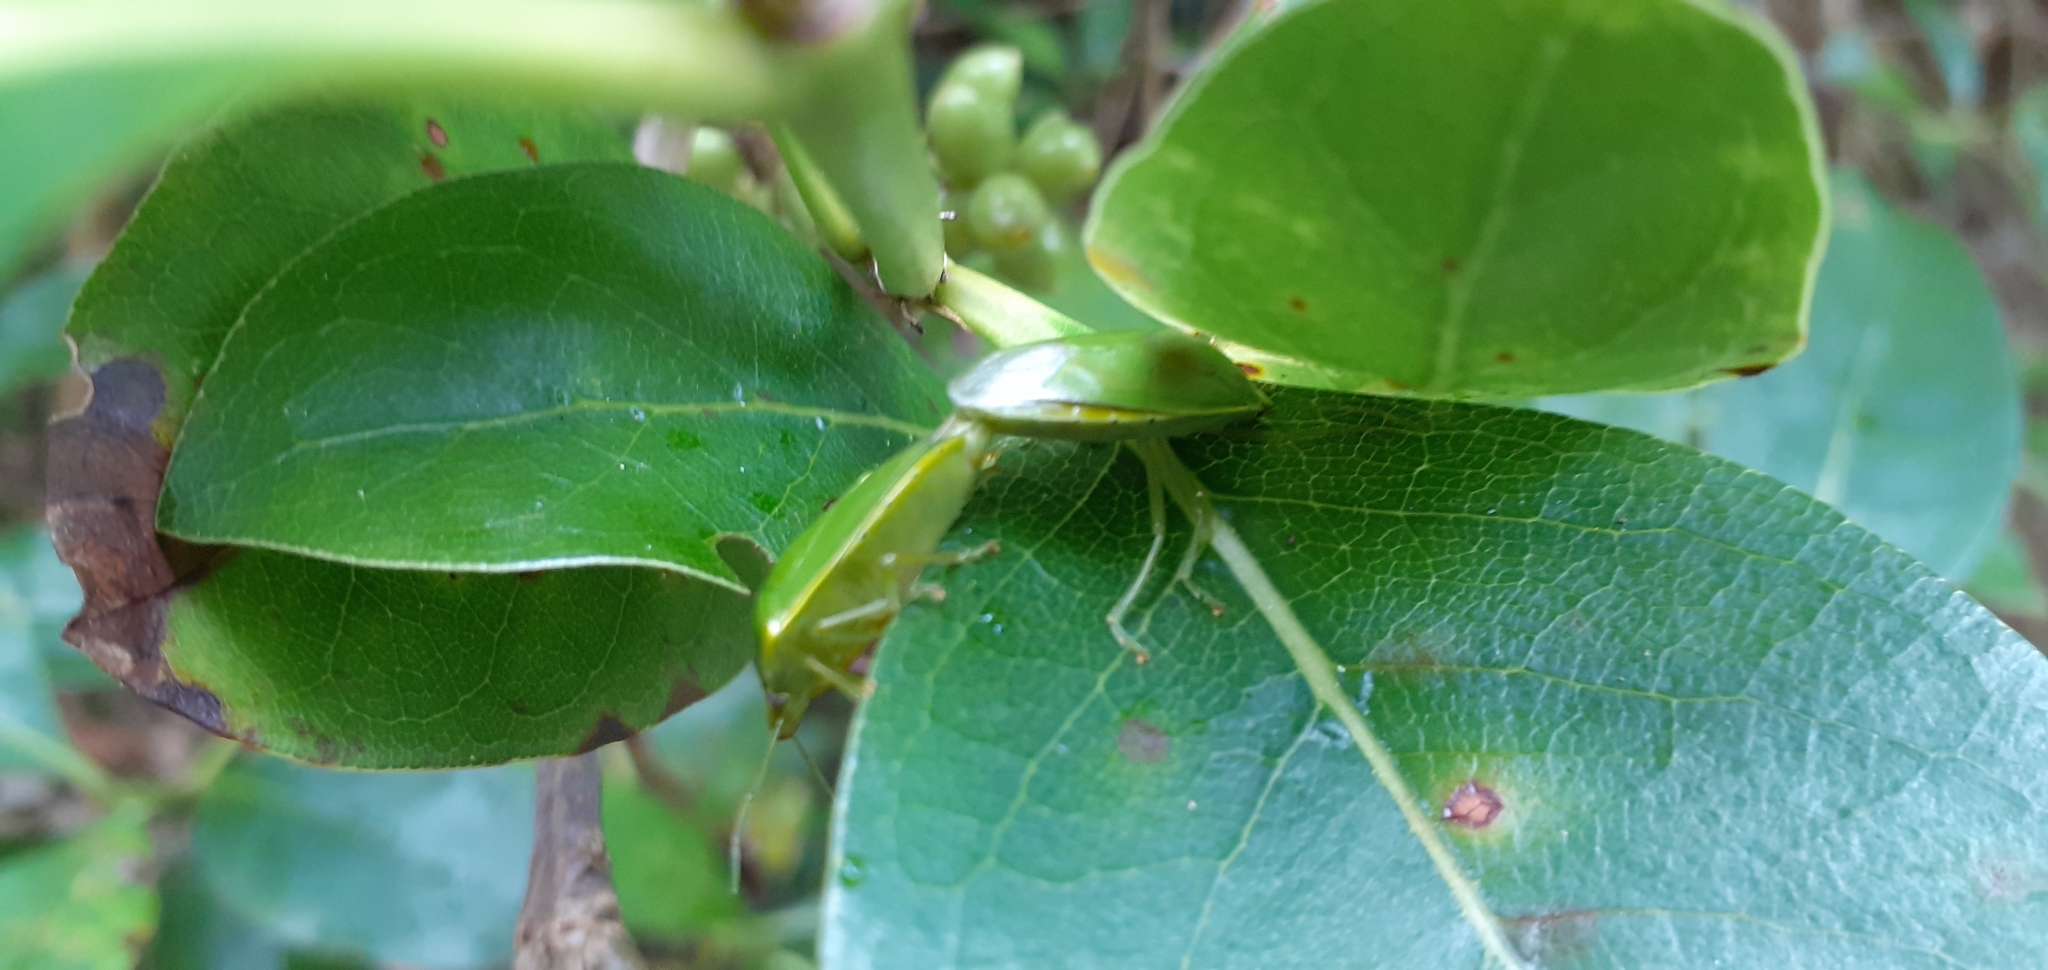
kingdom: Animalia
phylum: Arthropoda
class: Insecta
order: Hemiptera
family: Pentatomidae
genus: Glaucias
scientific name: Glaucias amyota
